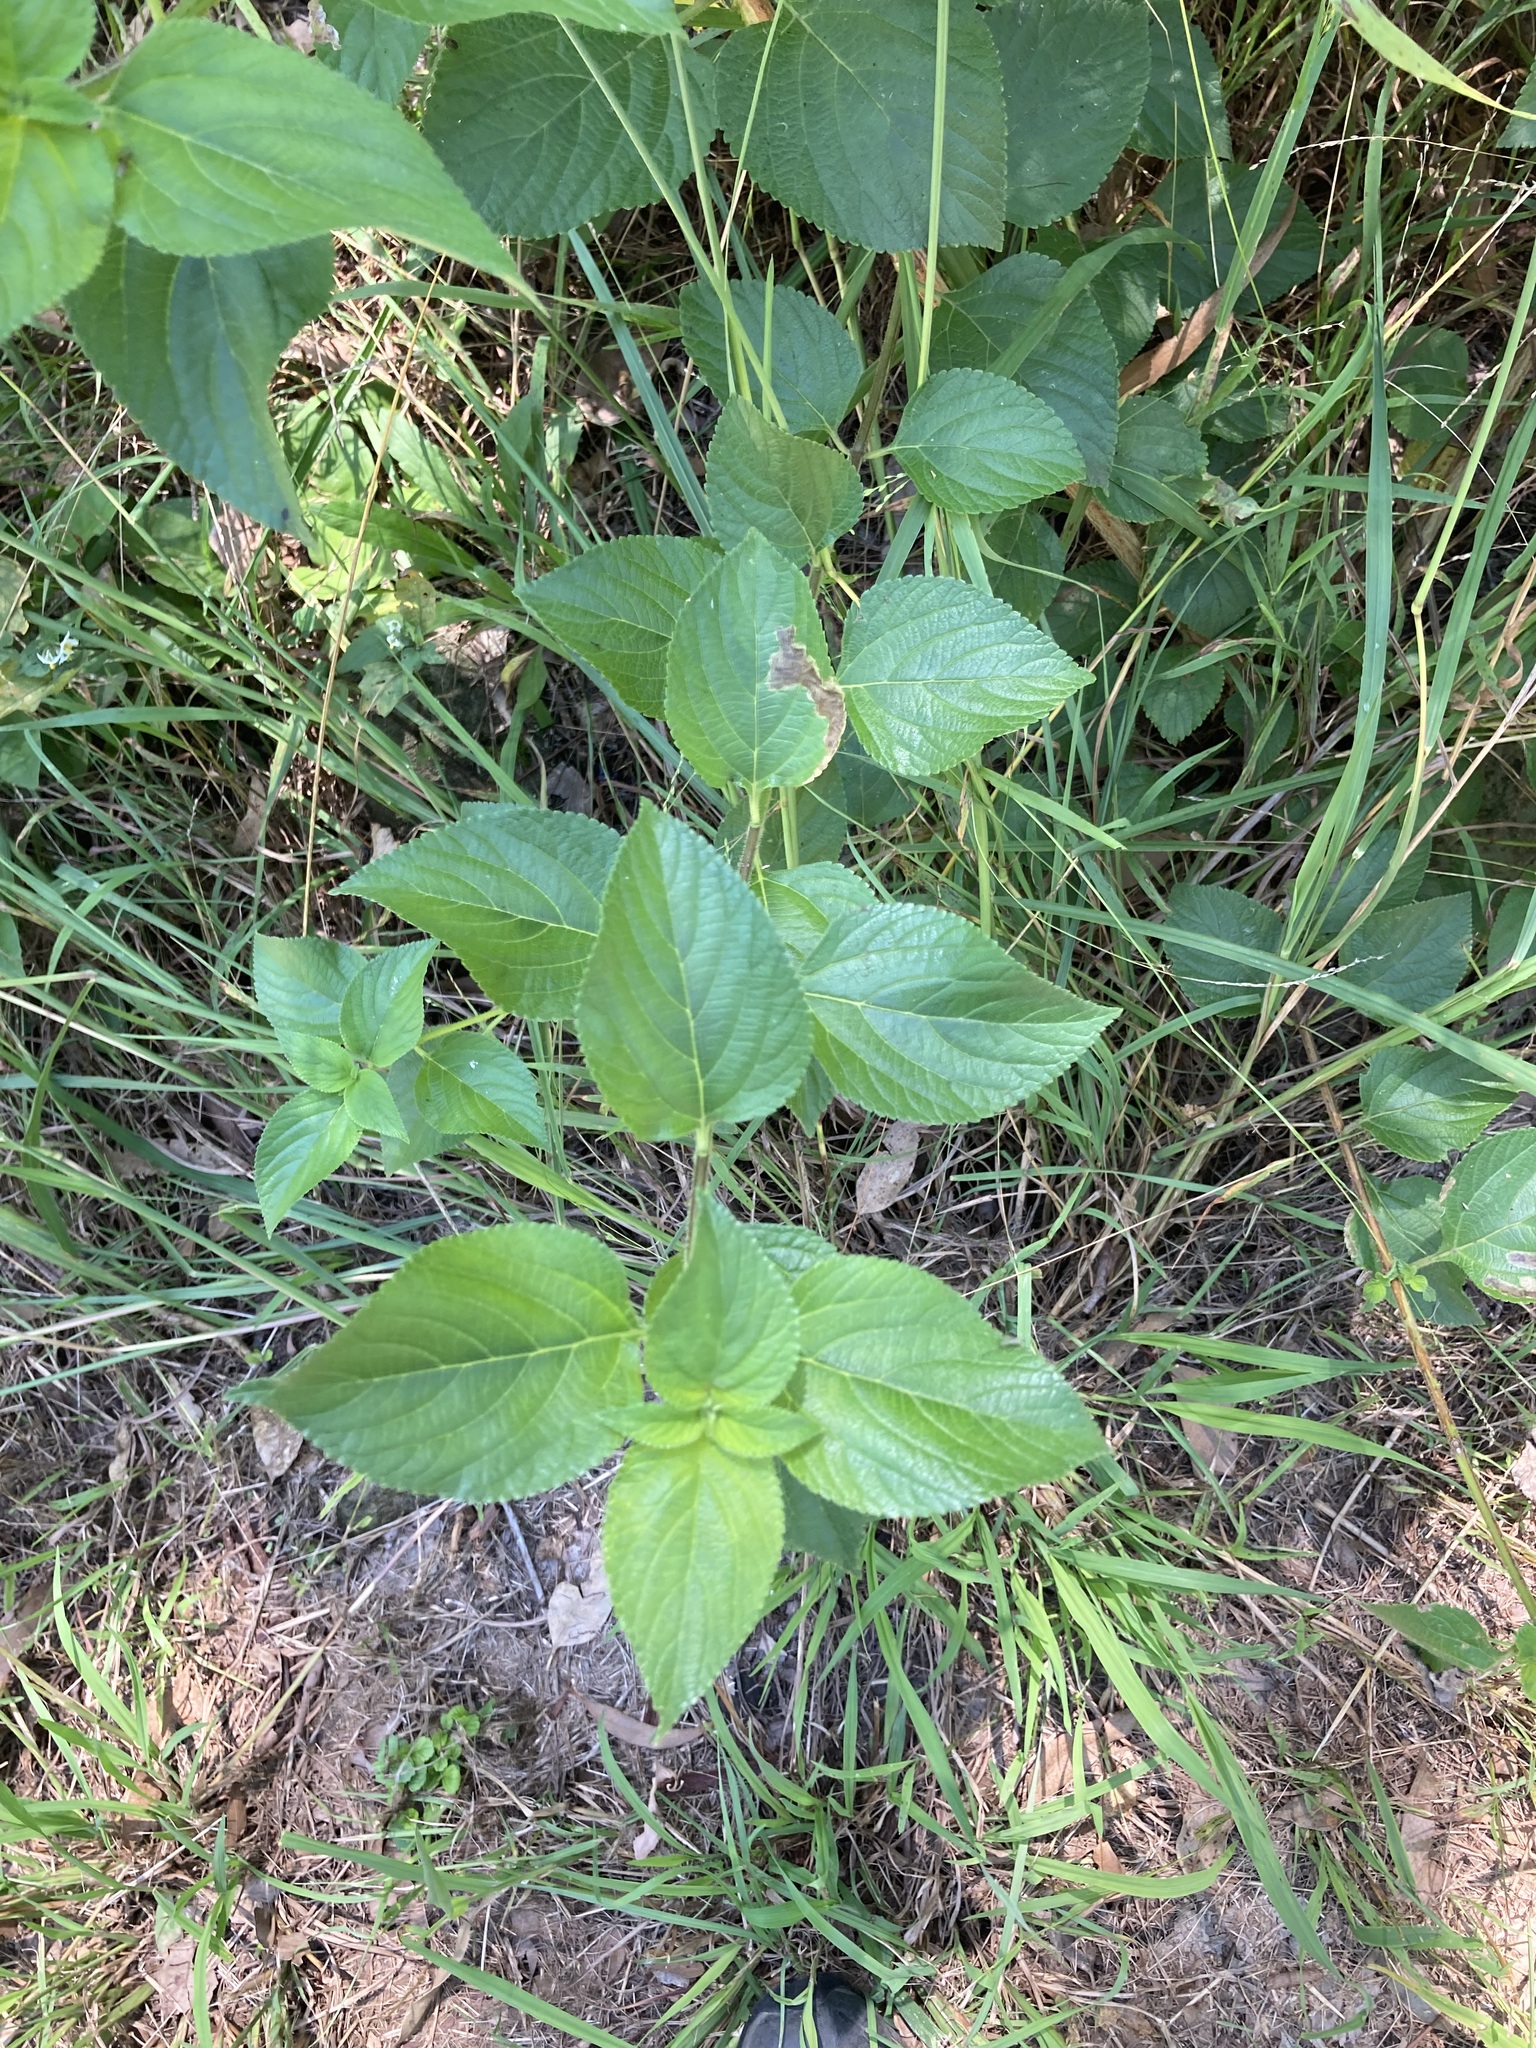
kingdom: Plantae
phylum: Tracheophyta
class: Magnoliopsida
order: Lamiales
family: Verbenaceae
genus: Lantana
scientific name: Lantana camara
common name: Lantana
